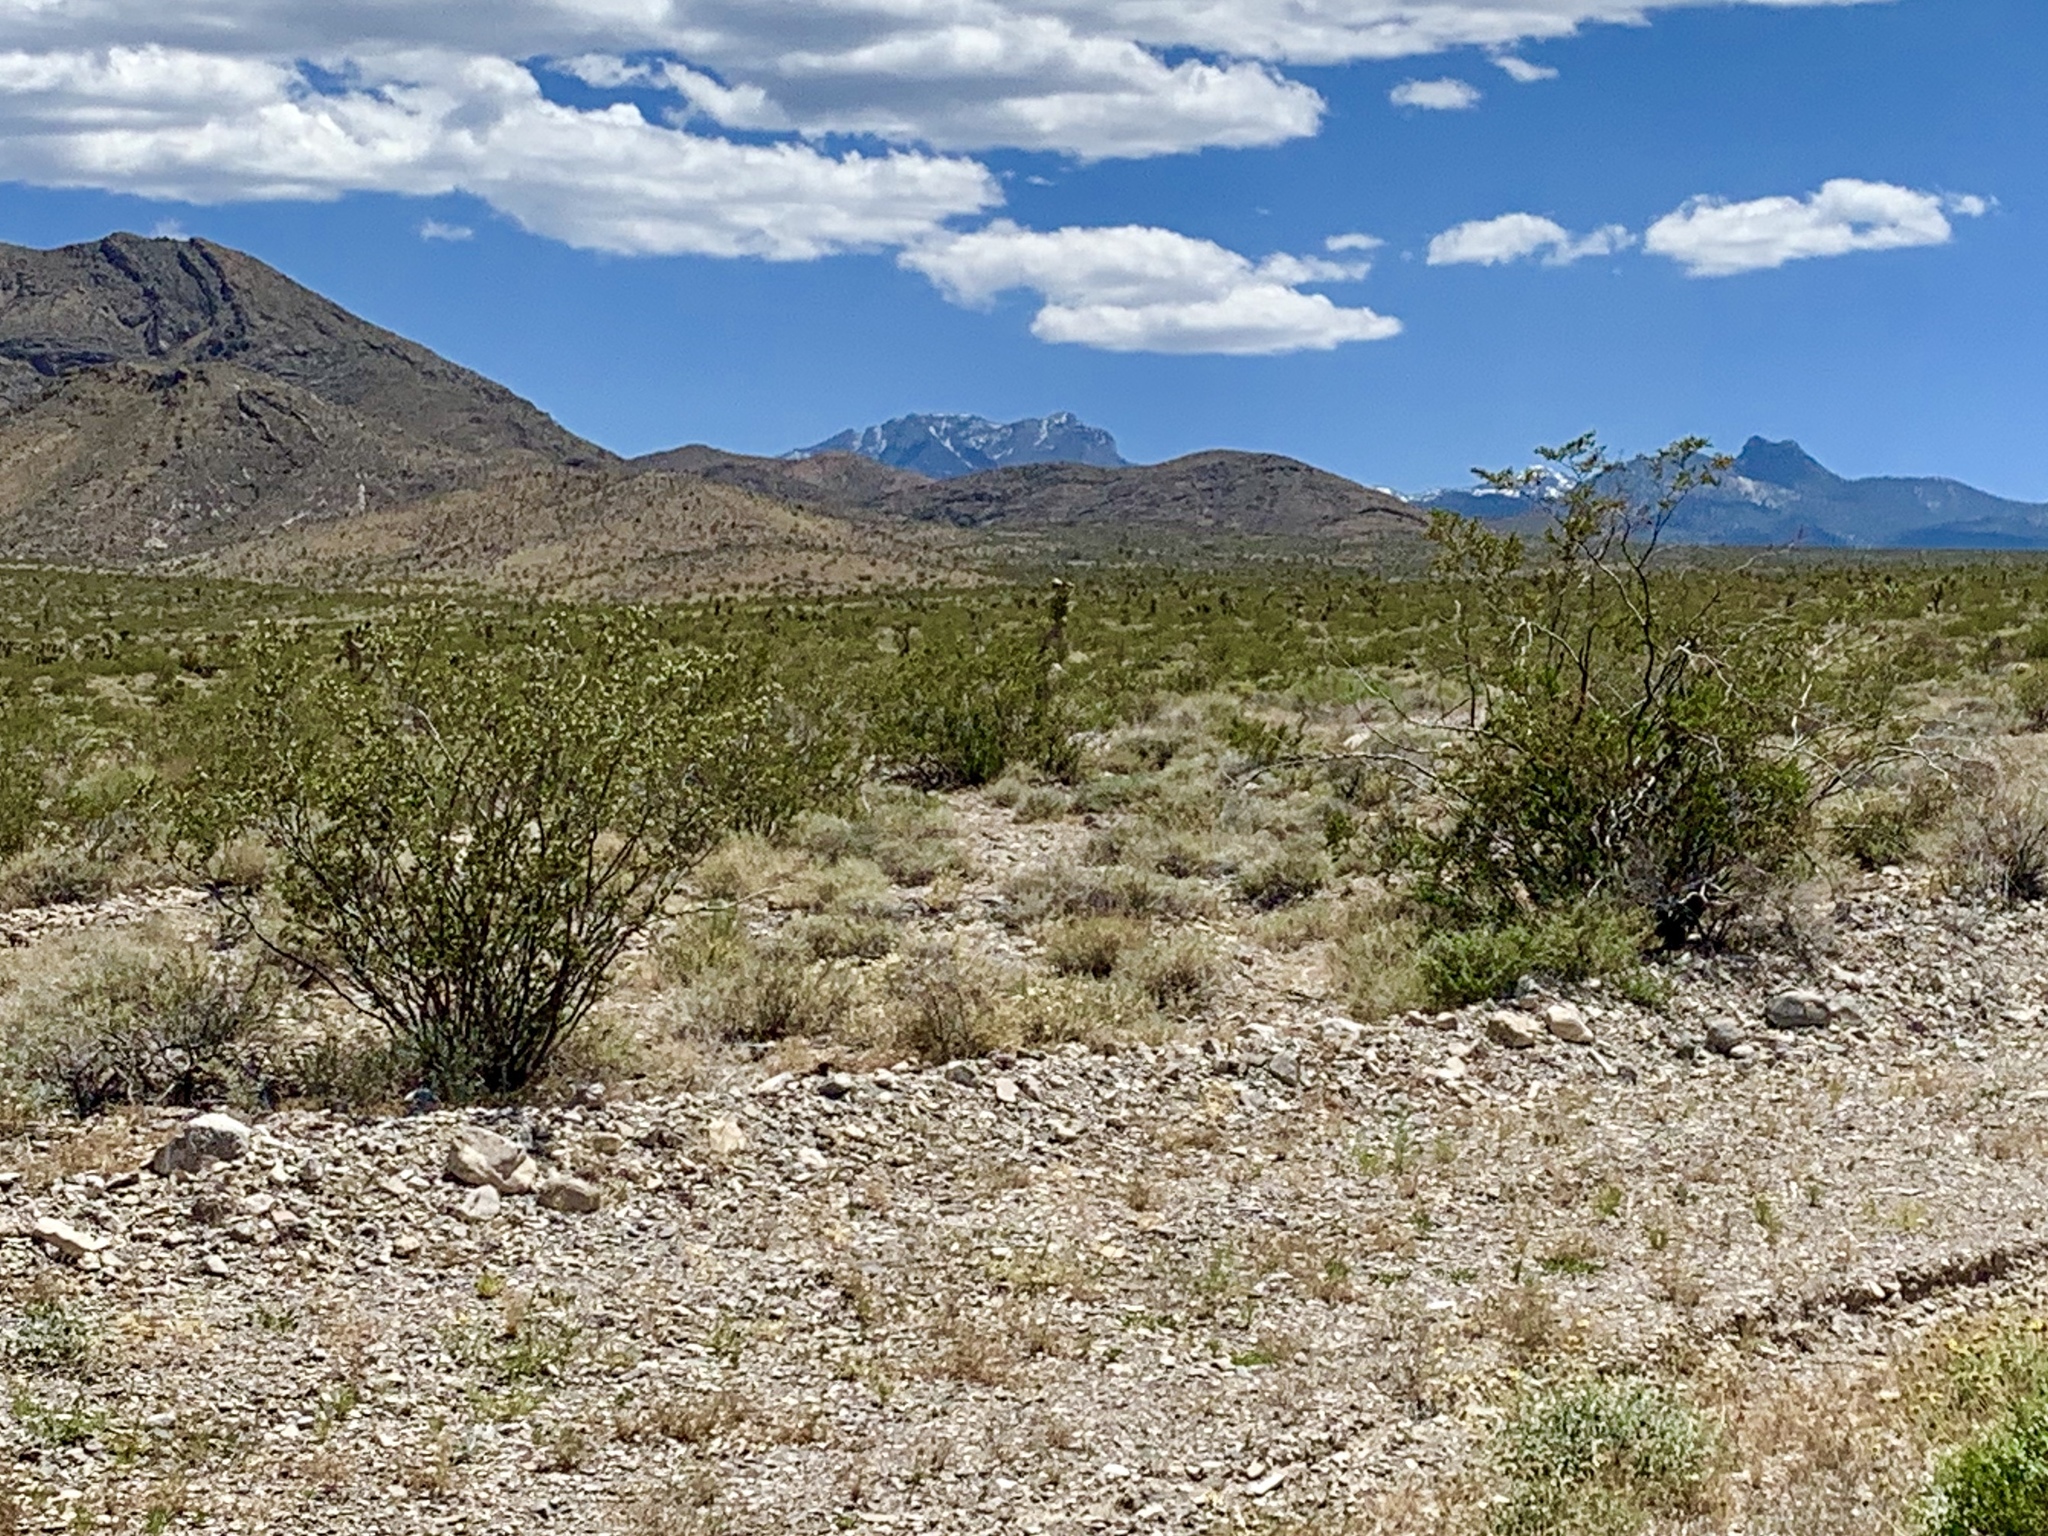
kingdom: Plantae
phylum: Tracheophyta
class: Magnoliopsida
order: Zygophyllales
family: Zygophyllaceae
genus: Larrea
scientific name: Larrea tridentata
